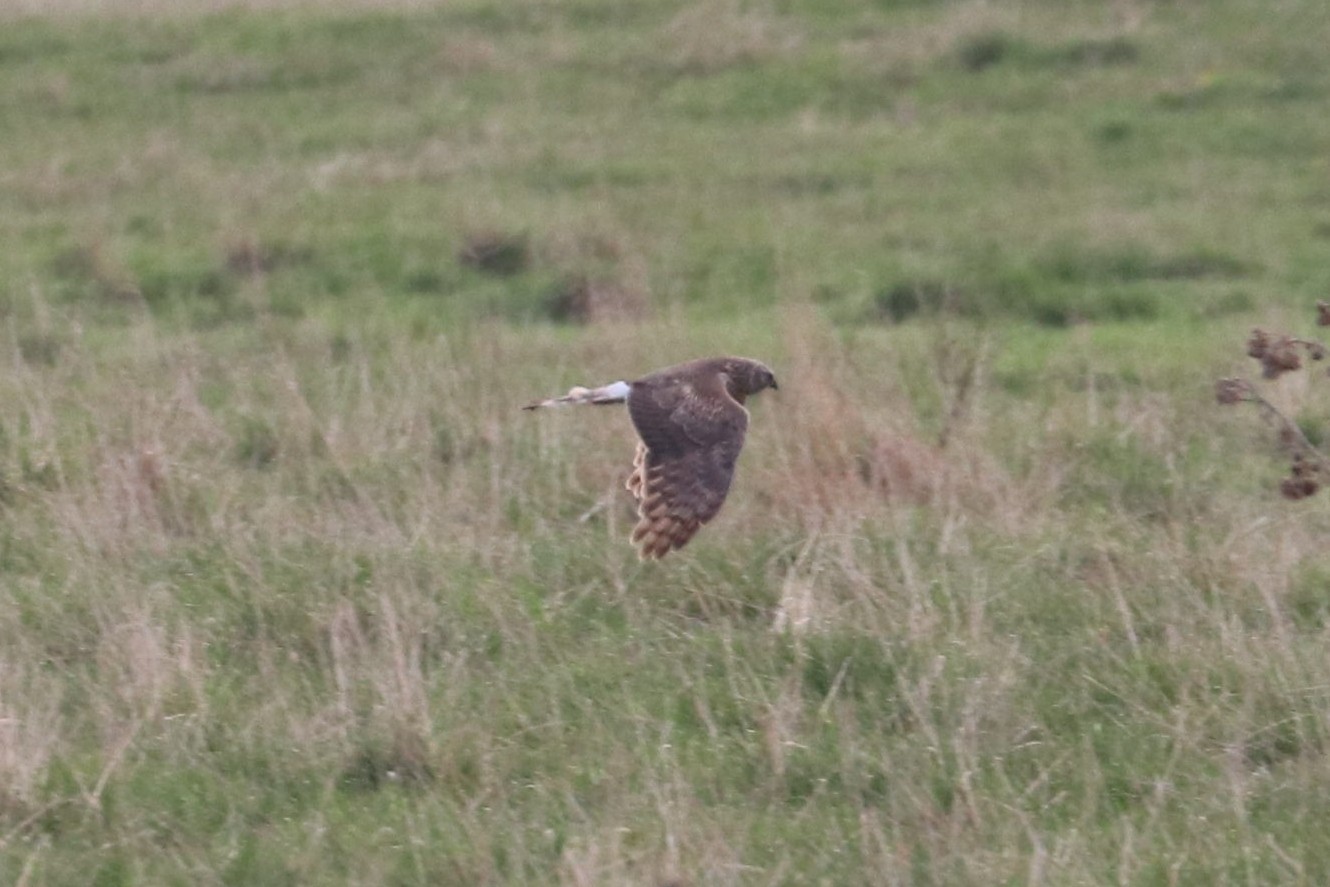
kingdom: Animalia
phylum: Chordata
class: Aves
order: Accipitriformes
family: Accipitridae
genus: Circus
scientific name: Circus cyaneus
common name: Hen harrier
